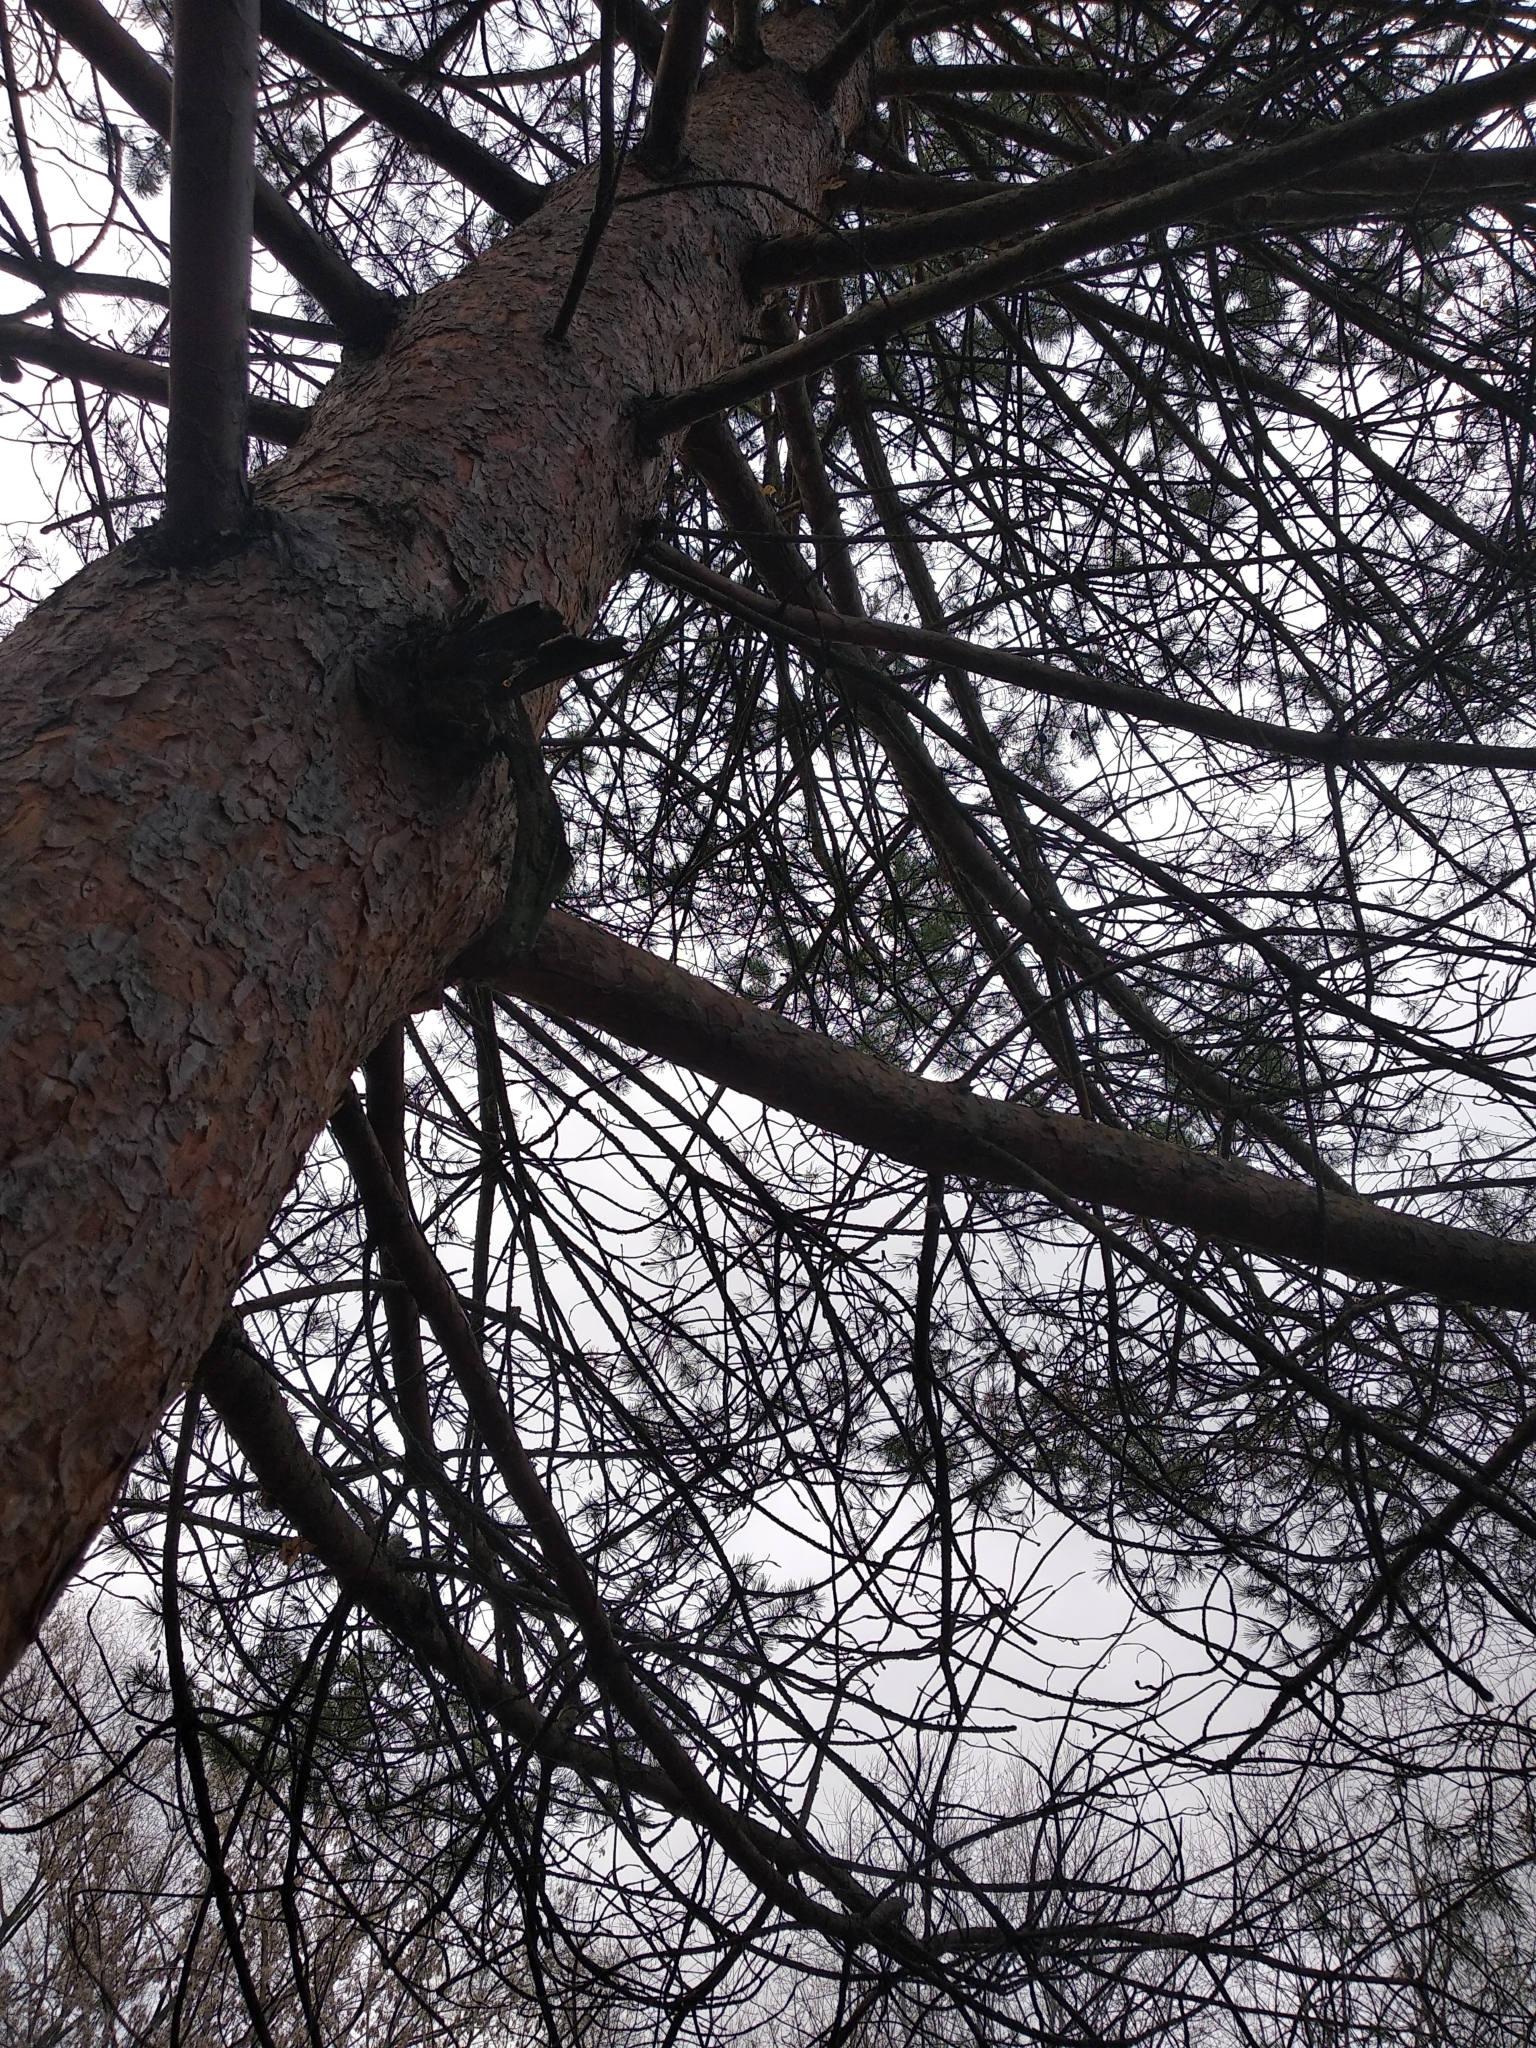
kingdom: Plantae
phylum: Tracheophyta
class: Pinopsida
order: Pinales
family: Pinaceae
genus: Pinus
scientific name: Pinus sylvestris
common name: Scots pine
